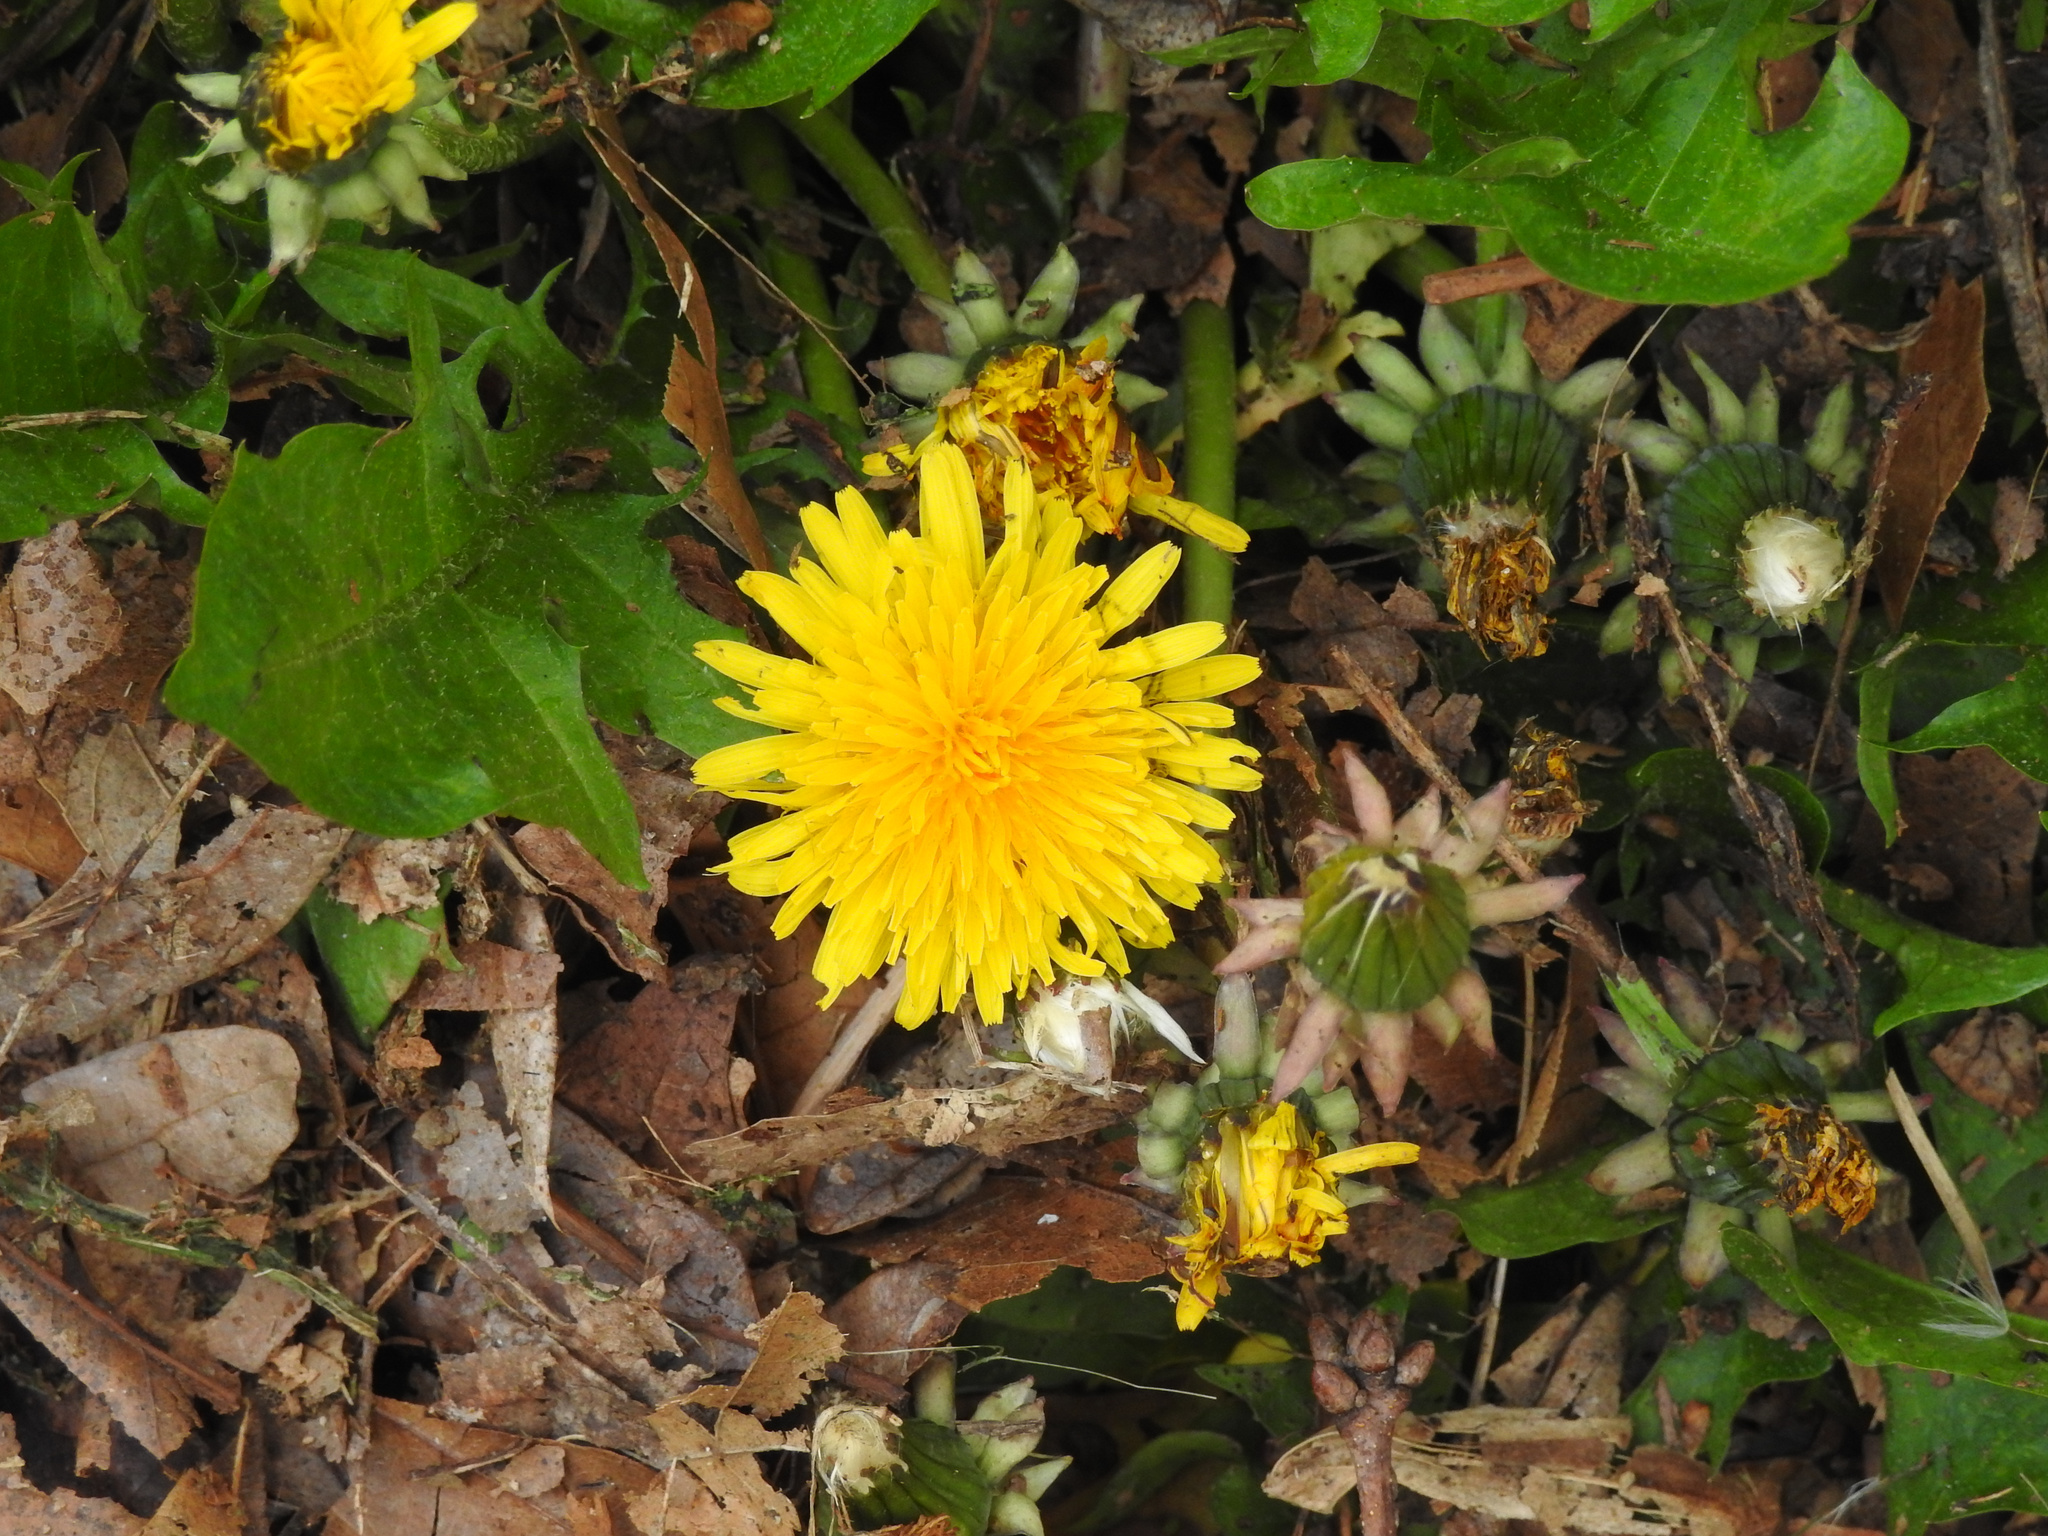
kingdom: Plantae
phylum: Tracheophyta
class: Magnoliopsida
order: Asterales
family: Asteraceae
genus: Taraxacum
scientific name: Taraxacum officinale
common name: Common dandelion
